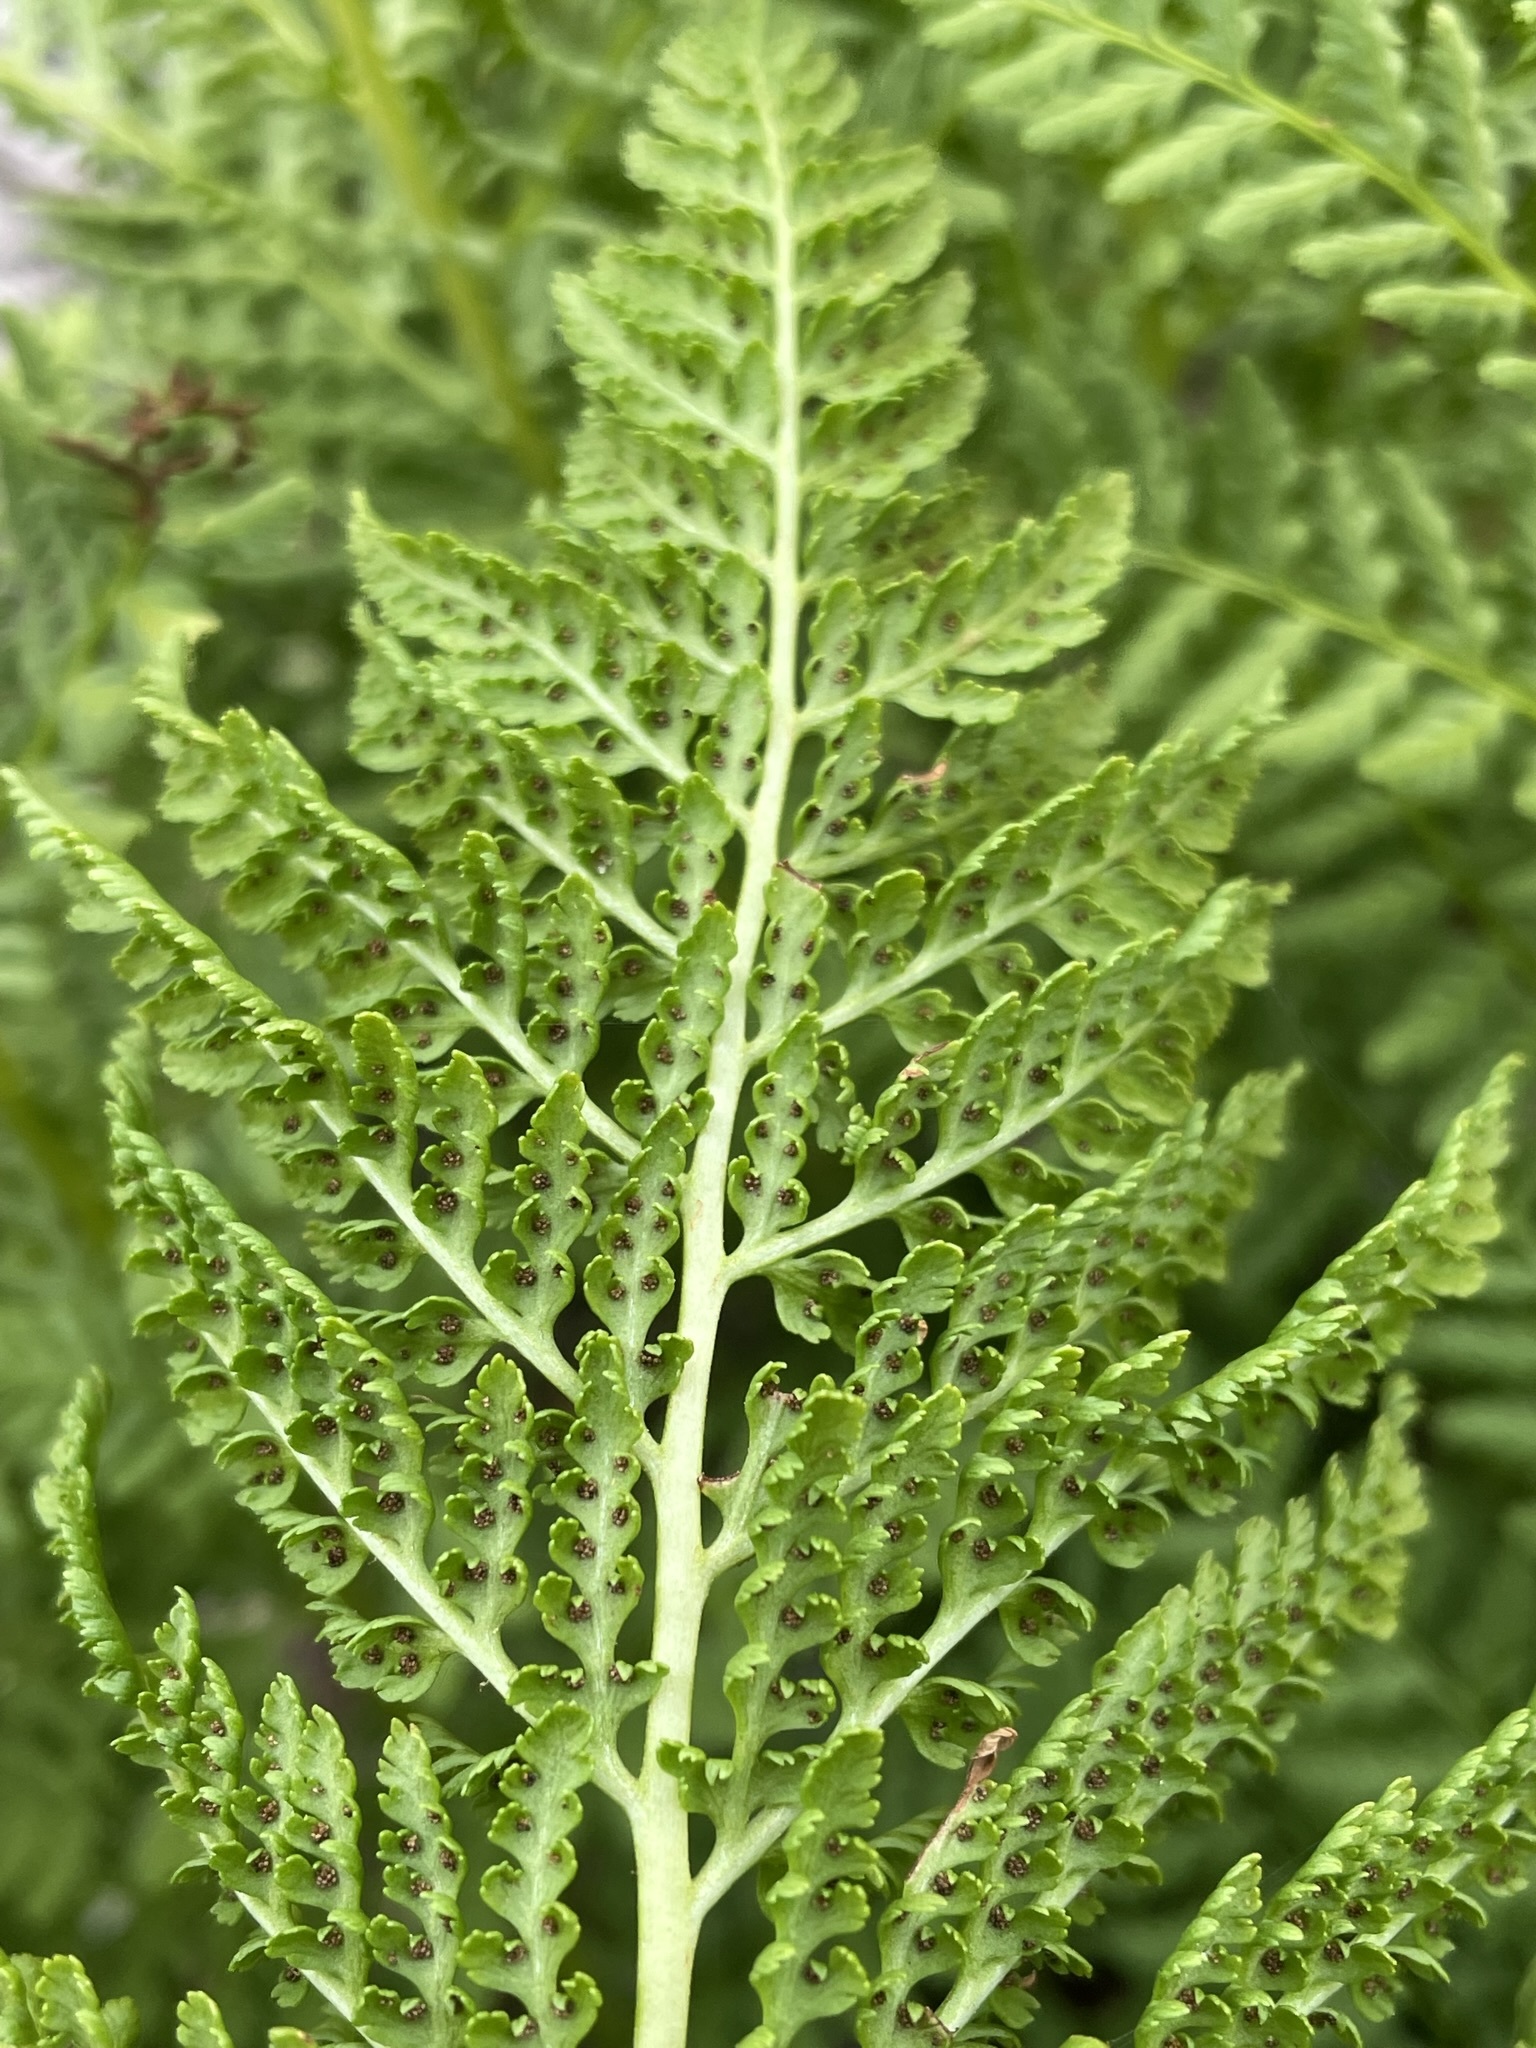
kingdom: Plantae
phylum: Tracheophyta
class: Polypodiopsida
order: Polypodiales
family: Athyriaceae
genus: Athyrium
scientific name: Athyrium americanum
